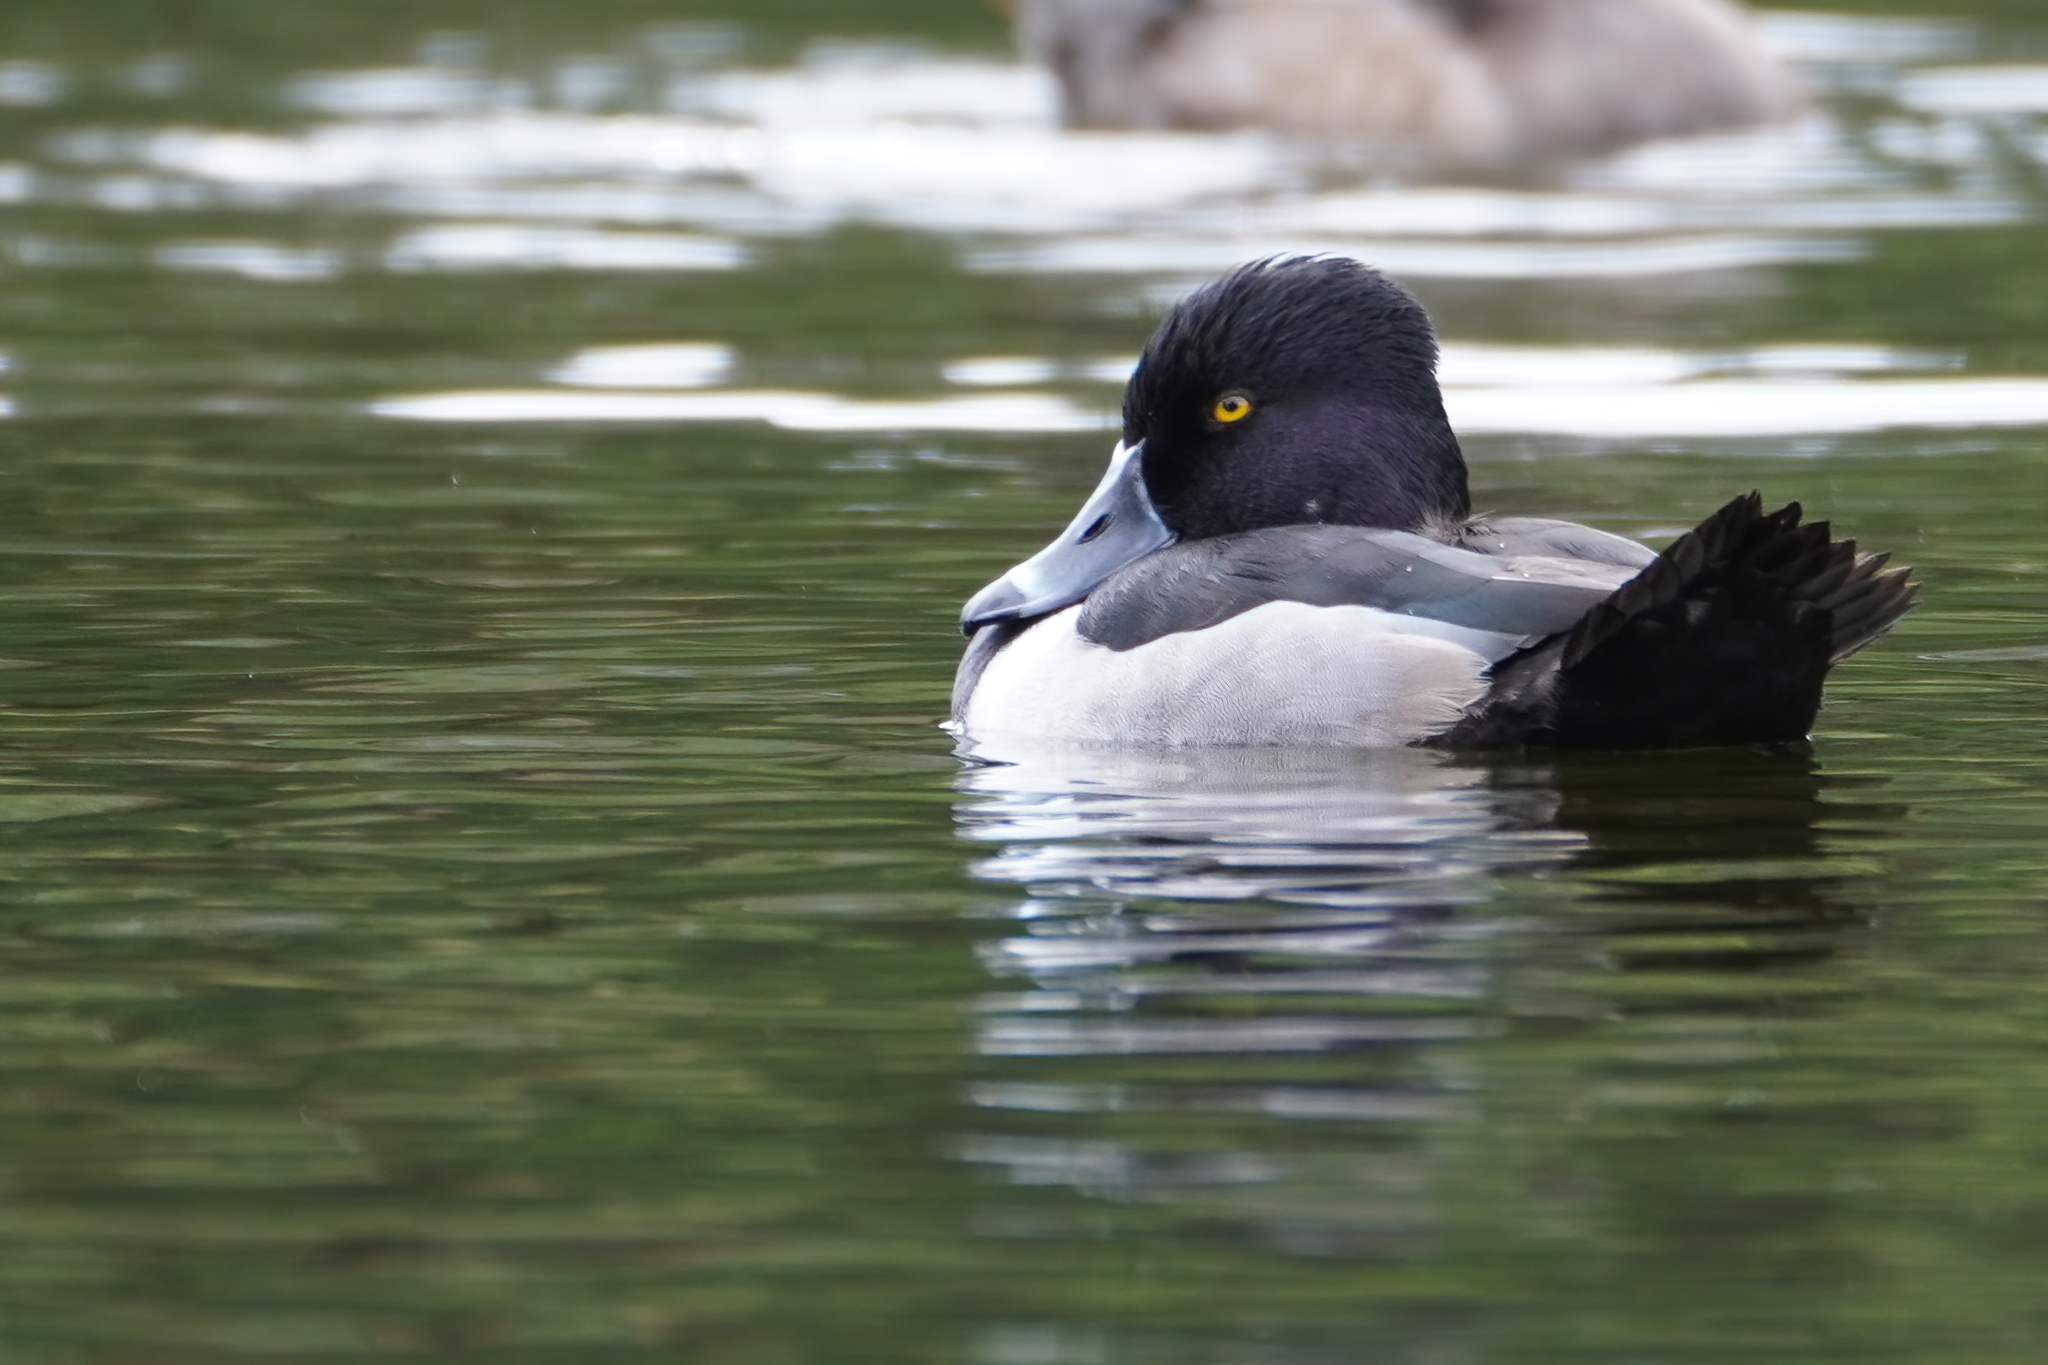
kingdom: Animalia
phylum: Chordata
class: Aves
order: Anseriformes
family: Anatidae
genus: Aythya
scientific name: Aythya collaris
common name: Ring-necked duck
